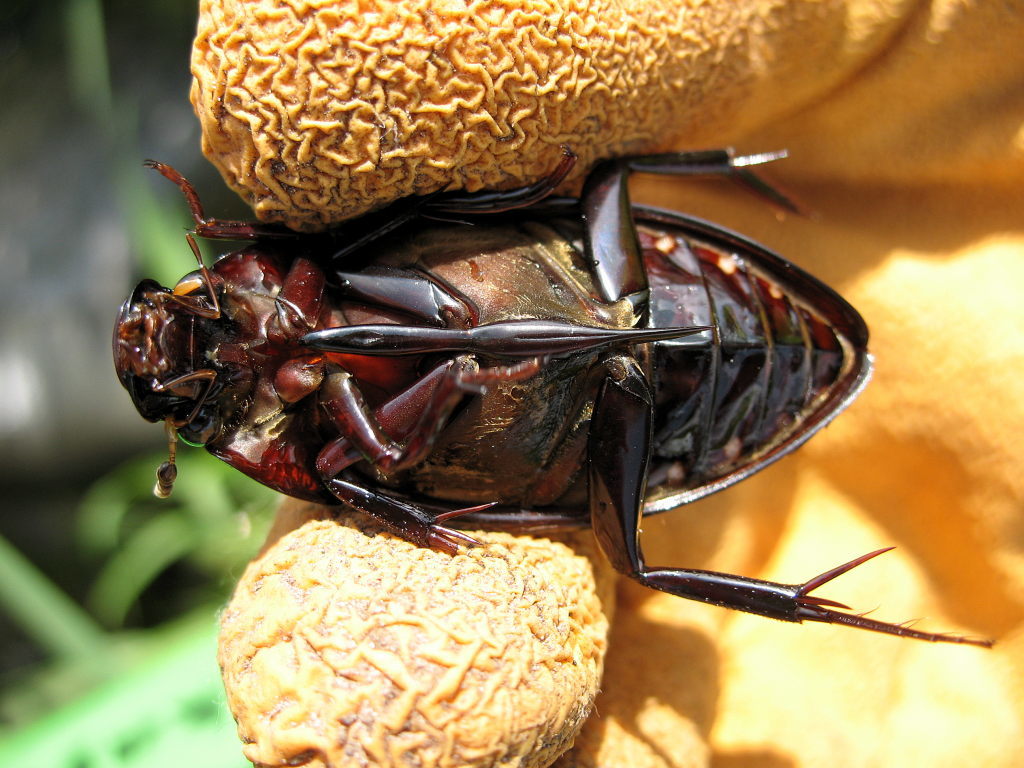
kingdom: Animalia
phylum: Arthropoda
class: Insecta
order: Coleoptera
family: Hydrophilidae
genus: Hydrophilus
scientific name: Hydrophilus piceus
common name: Great silver water beetle
